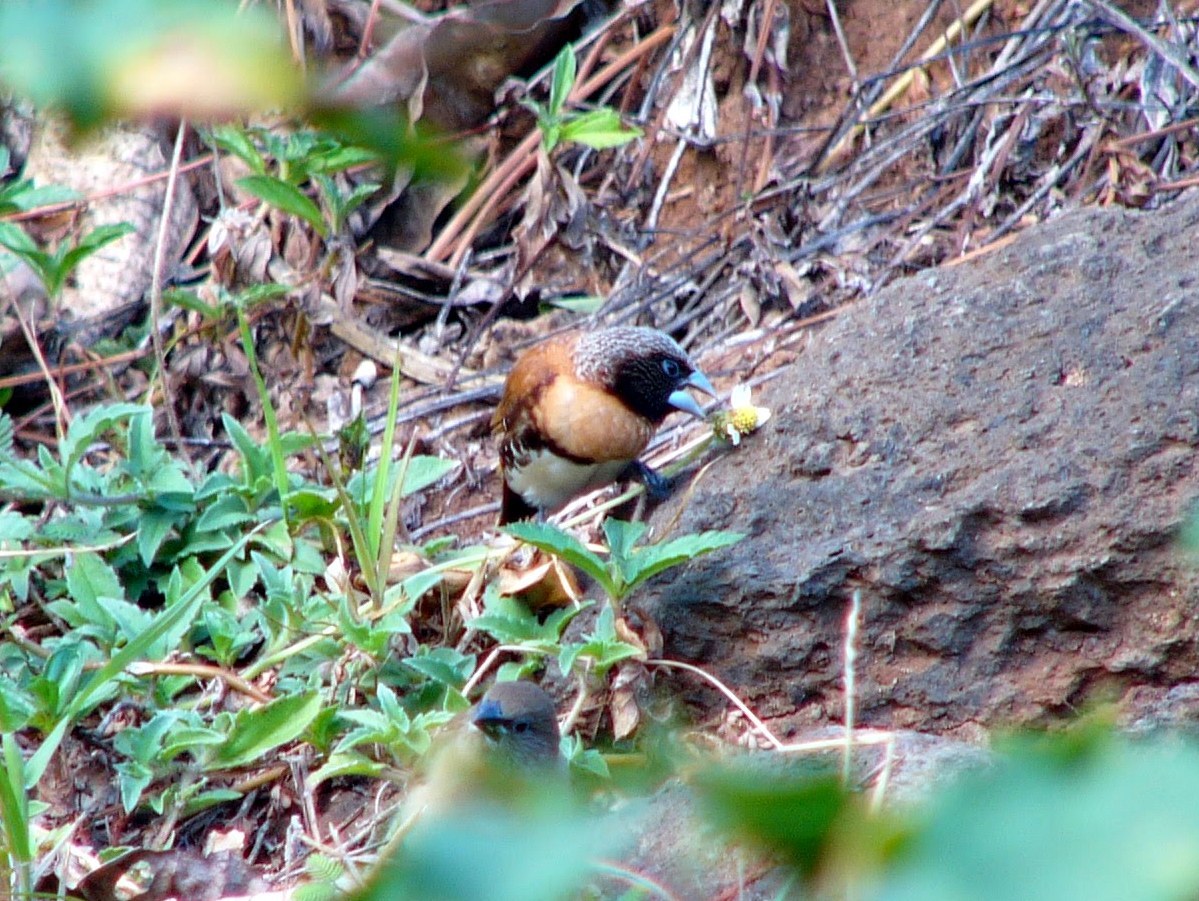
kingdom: Animalia
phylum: Chordata
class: Aves
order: Passeriformes
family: Estrildidae
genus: Lonchura
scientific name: Lonchura castaneothorax
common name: Chestnut-breasted mannikin
